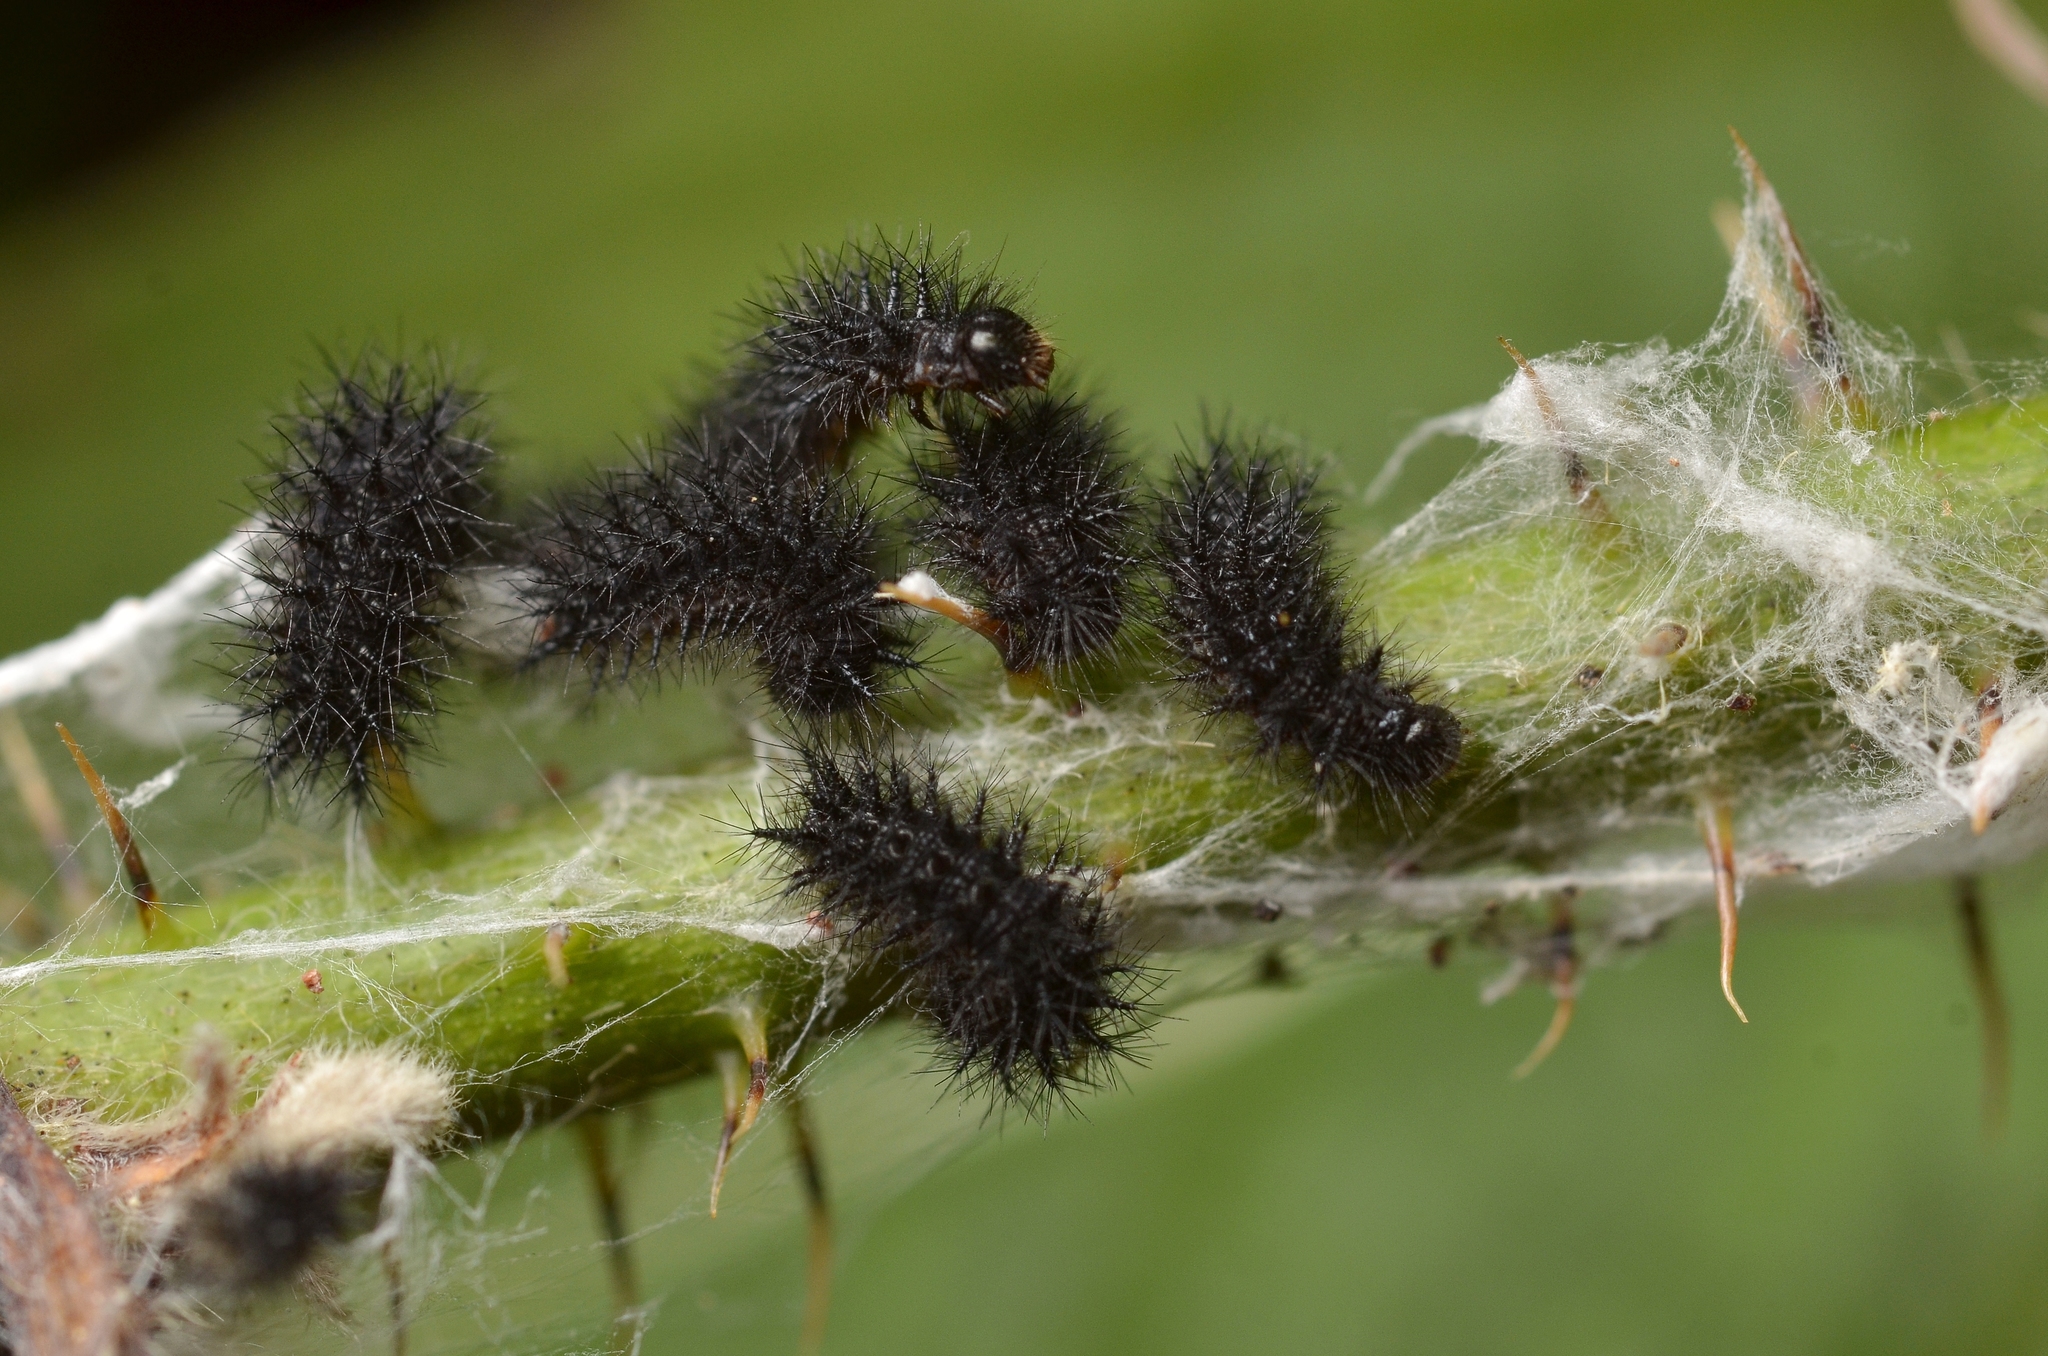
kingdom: Animalia
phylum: Arthropoda
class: Insecta
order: Lepidoptera
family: Nymphalidae
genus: Euphydryas
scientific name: Euphydryas aurinia
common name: Marsh fritillary
